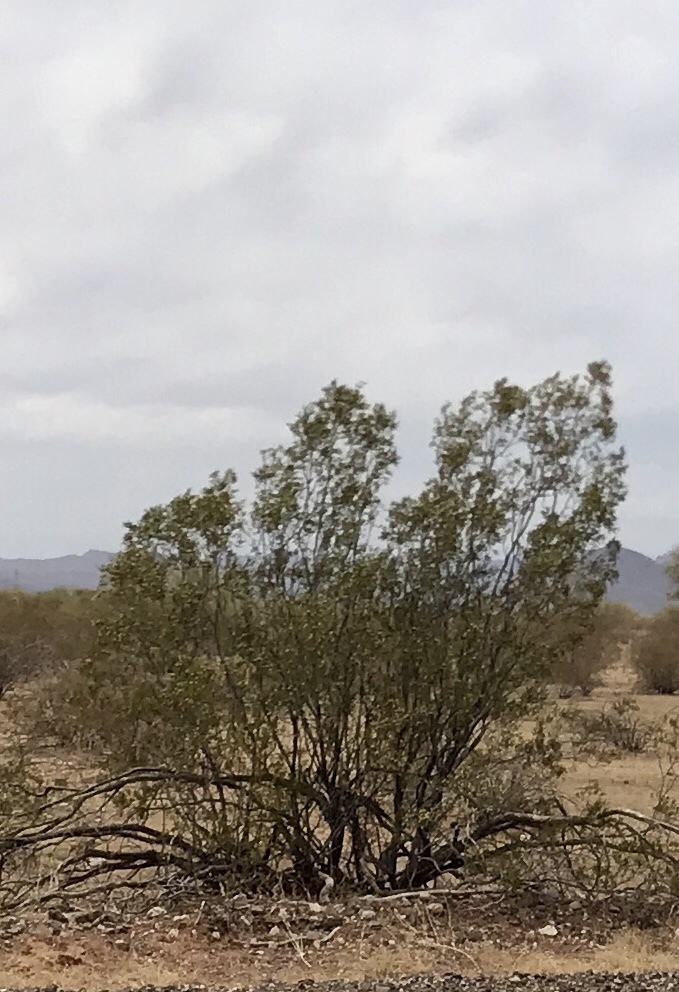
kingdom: Plantae
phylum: Tracheophyta
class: Magnoliopsida
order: Zygophyllales
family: Zygophyllaceae
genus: Larrea
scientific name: Larrea tridentata
